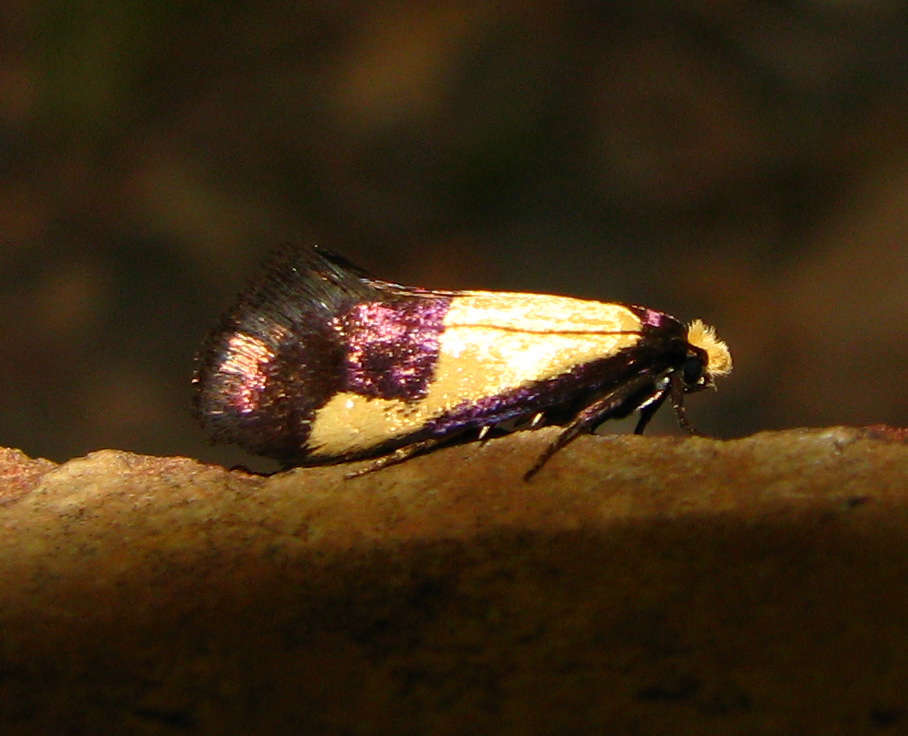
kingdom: Animalia
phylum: Arthropoda
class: Insecta
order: Lepidoptera
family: Tineidae
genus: Edosa
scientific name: Edosa irruptella
